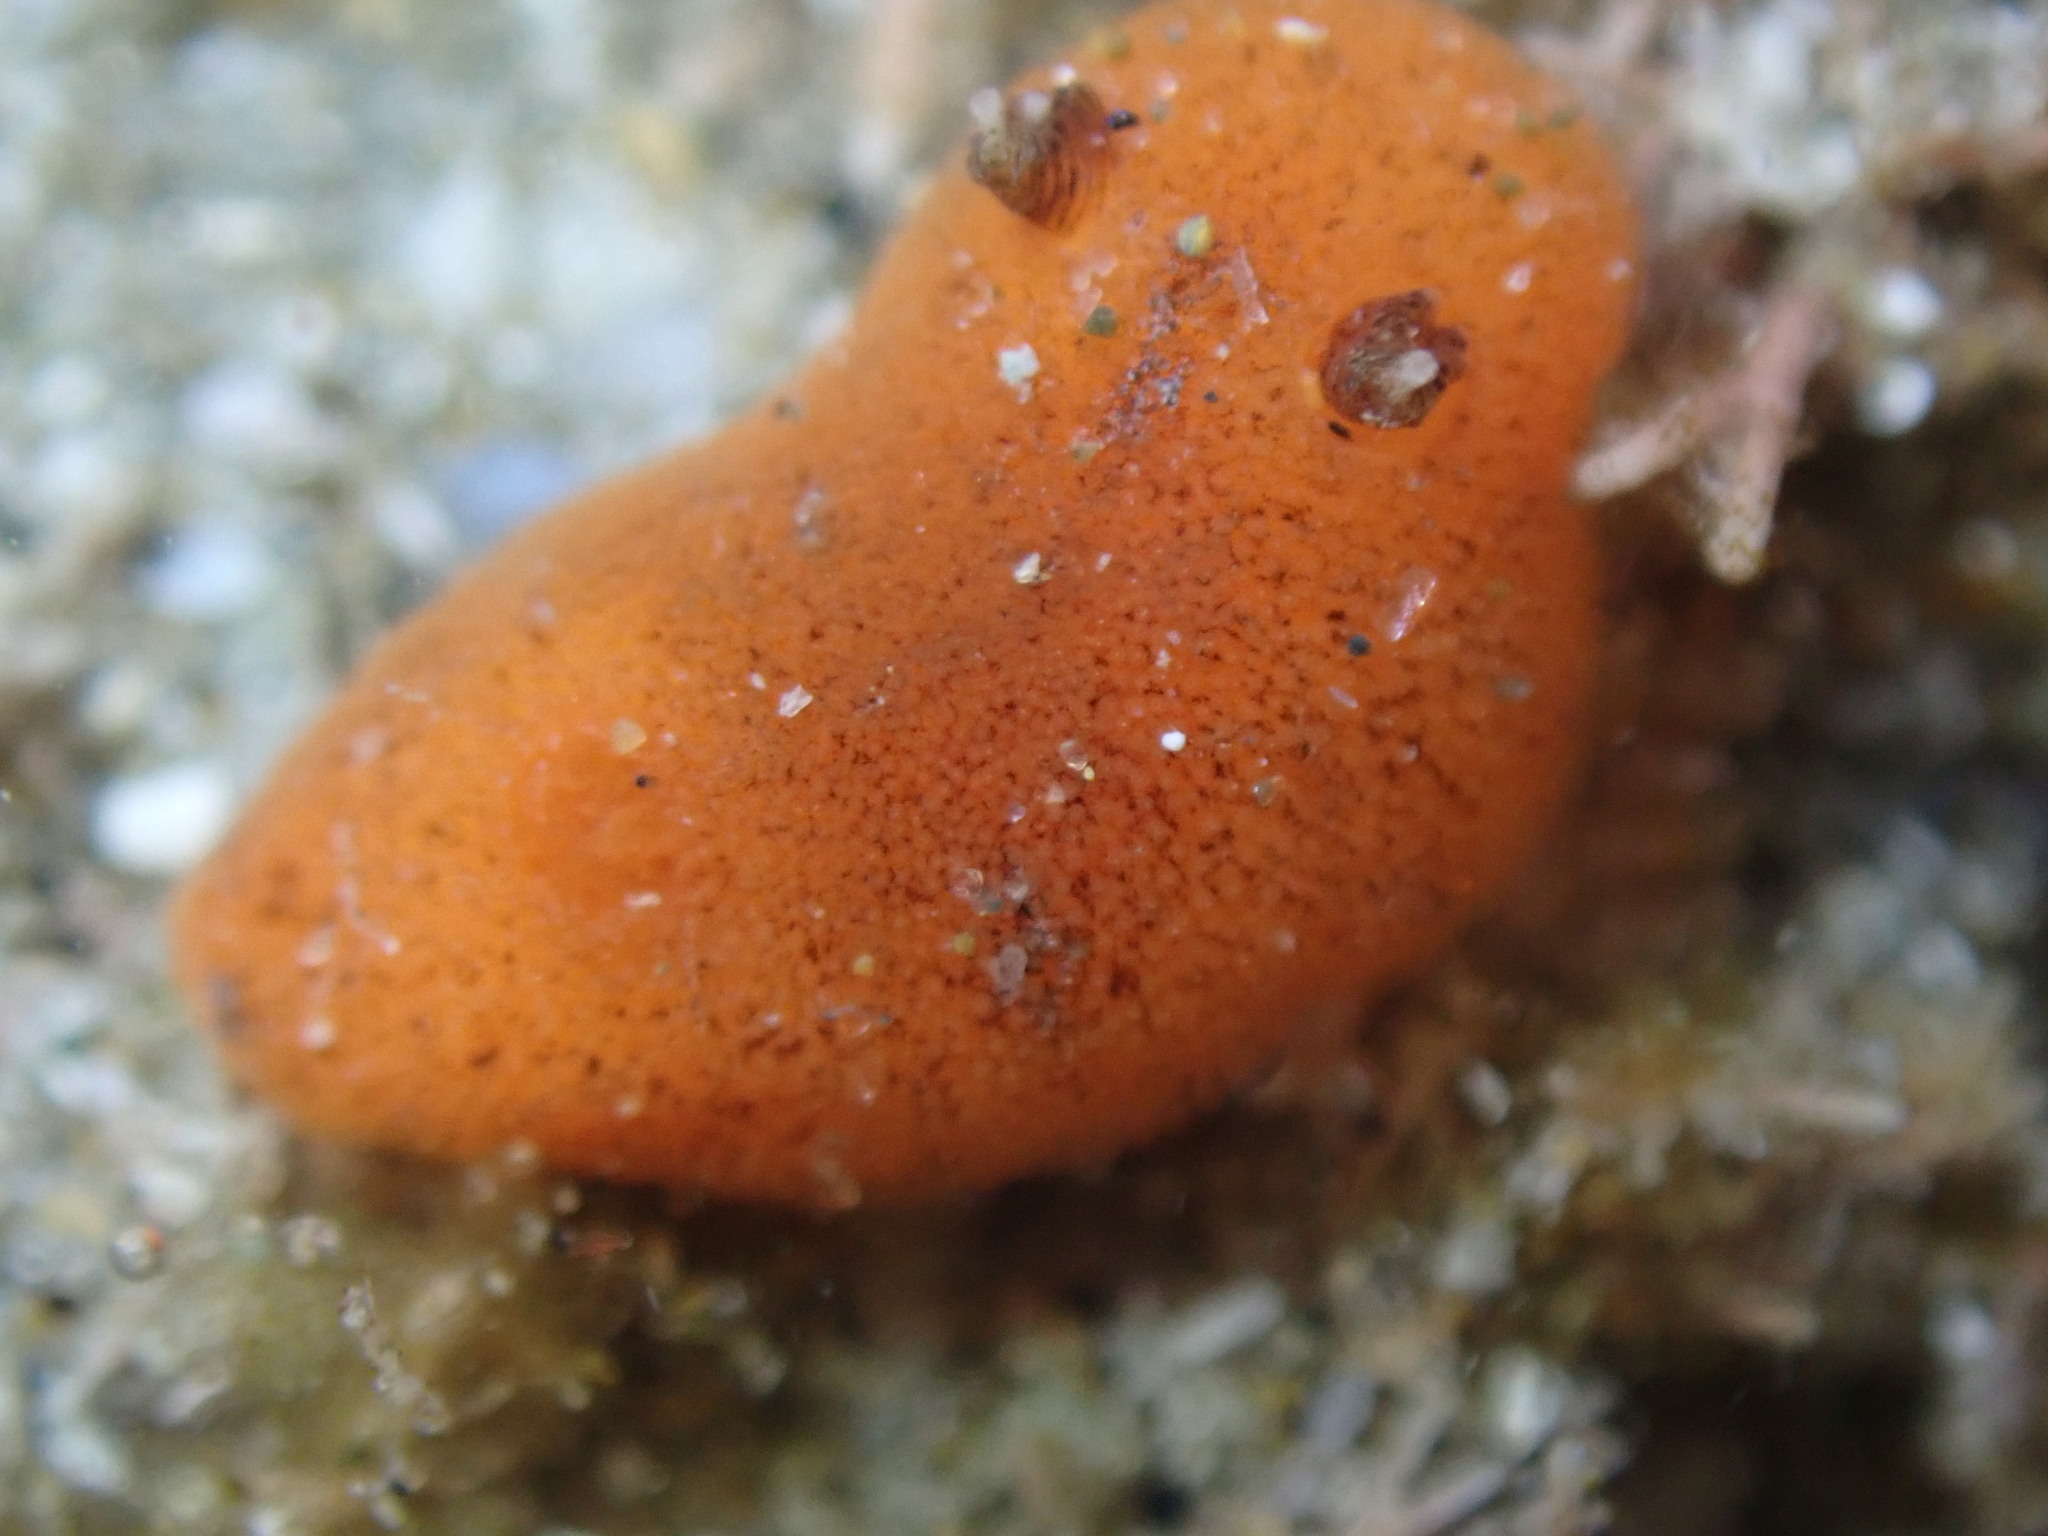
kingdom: Animalia
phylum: Mollusca
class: Gastropoda
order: Nudibranchia
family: Discodorididae
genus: Rostanga
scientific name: Rostanga muscula
